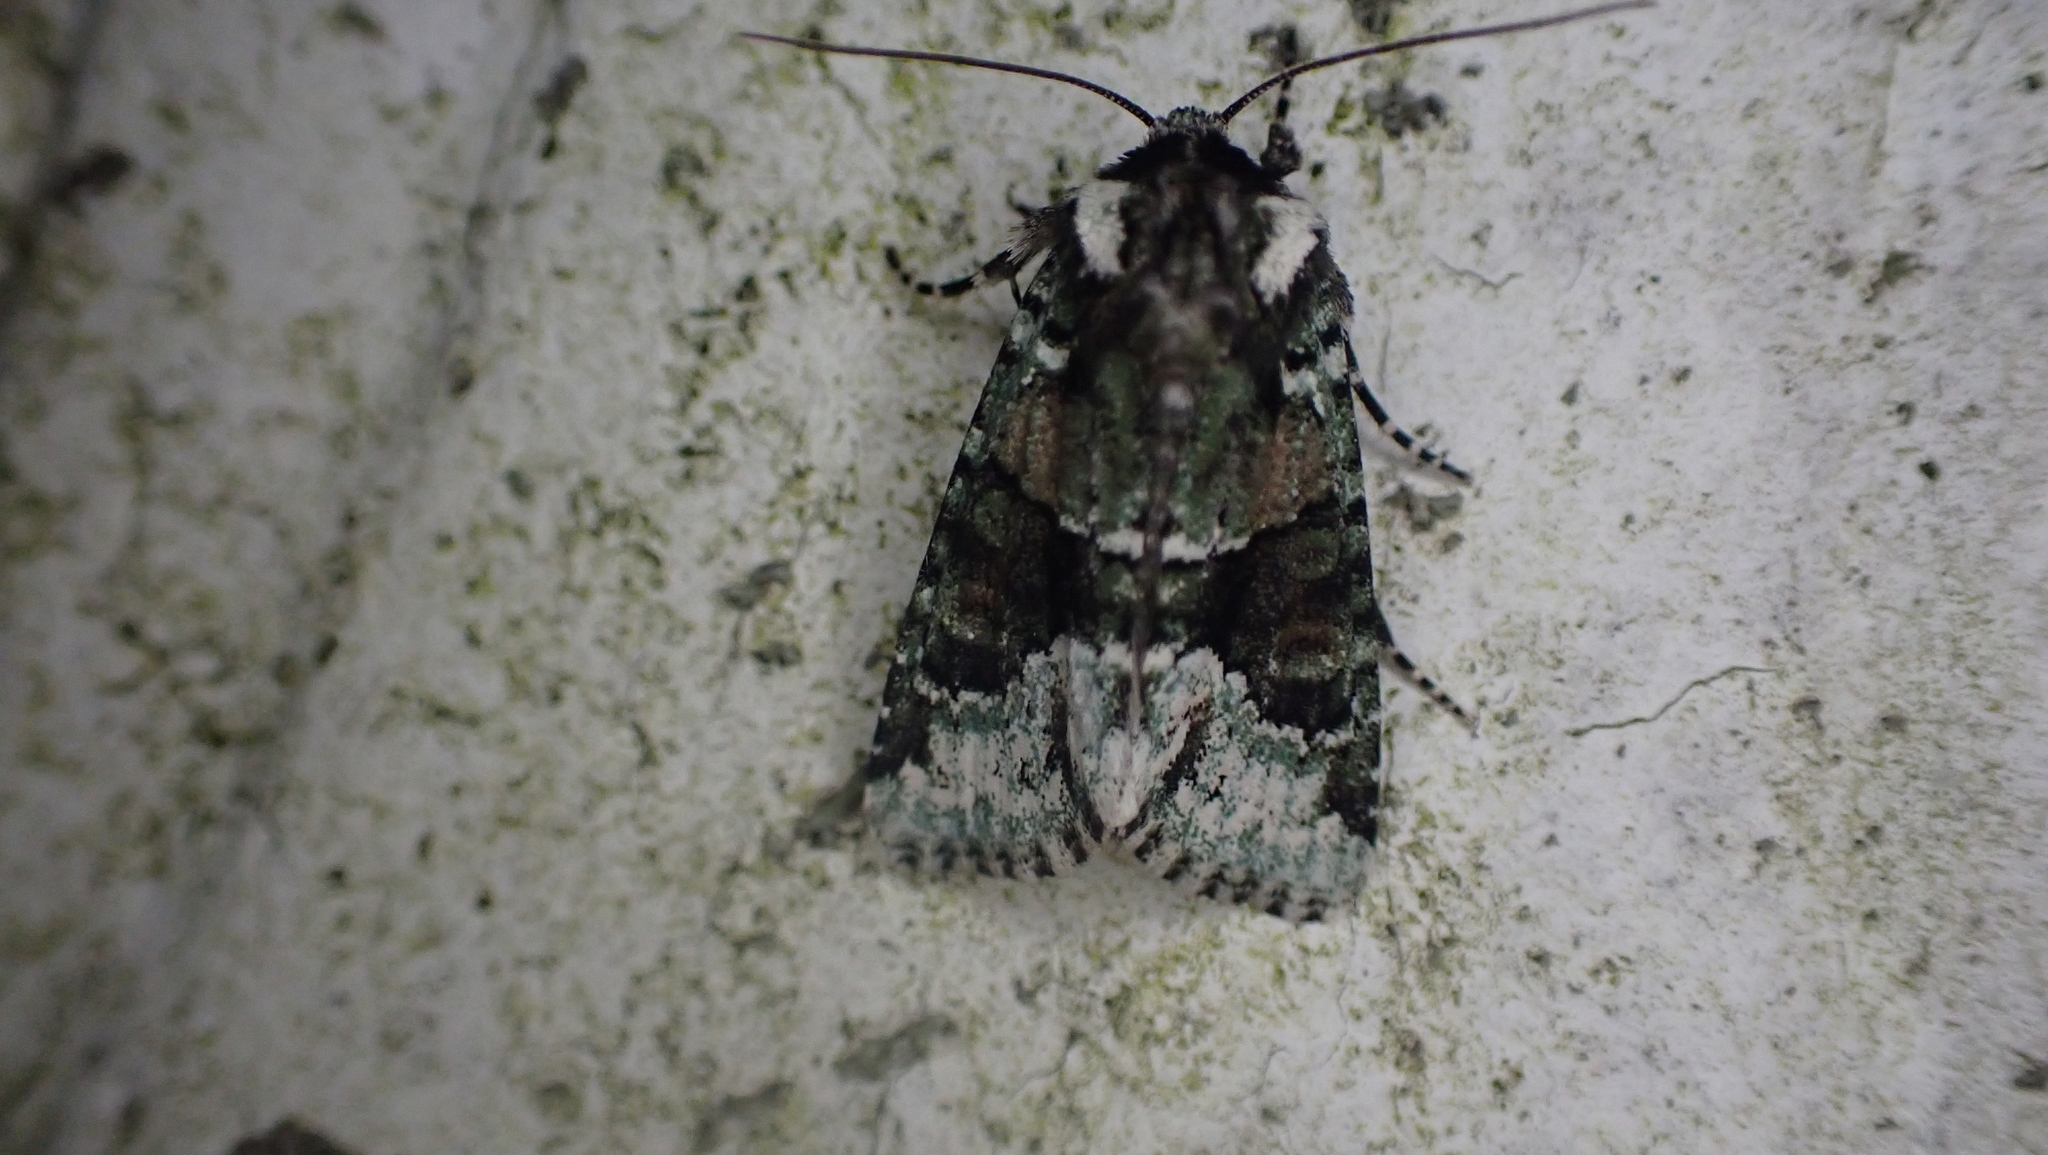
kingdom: Animalia
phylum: Arthropoda
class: Insecta
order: Lepidoptera
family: Noctuidae
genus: Lacinipolia
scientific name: Lacinipolia explicata
